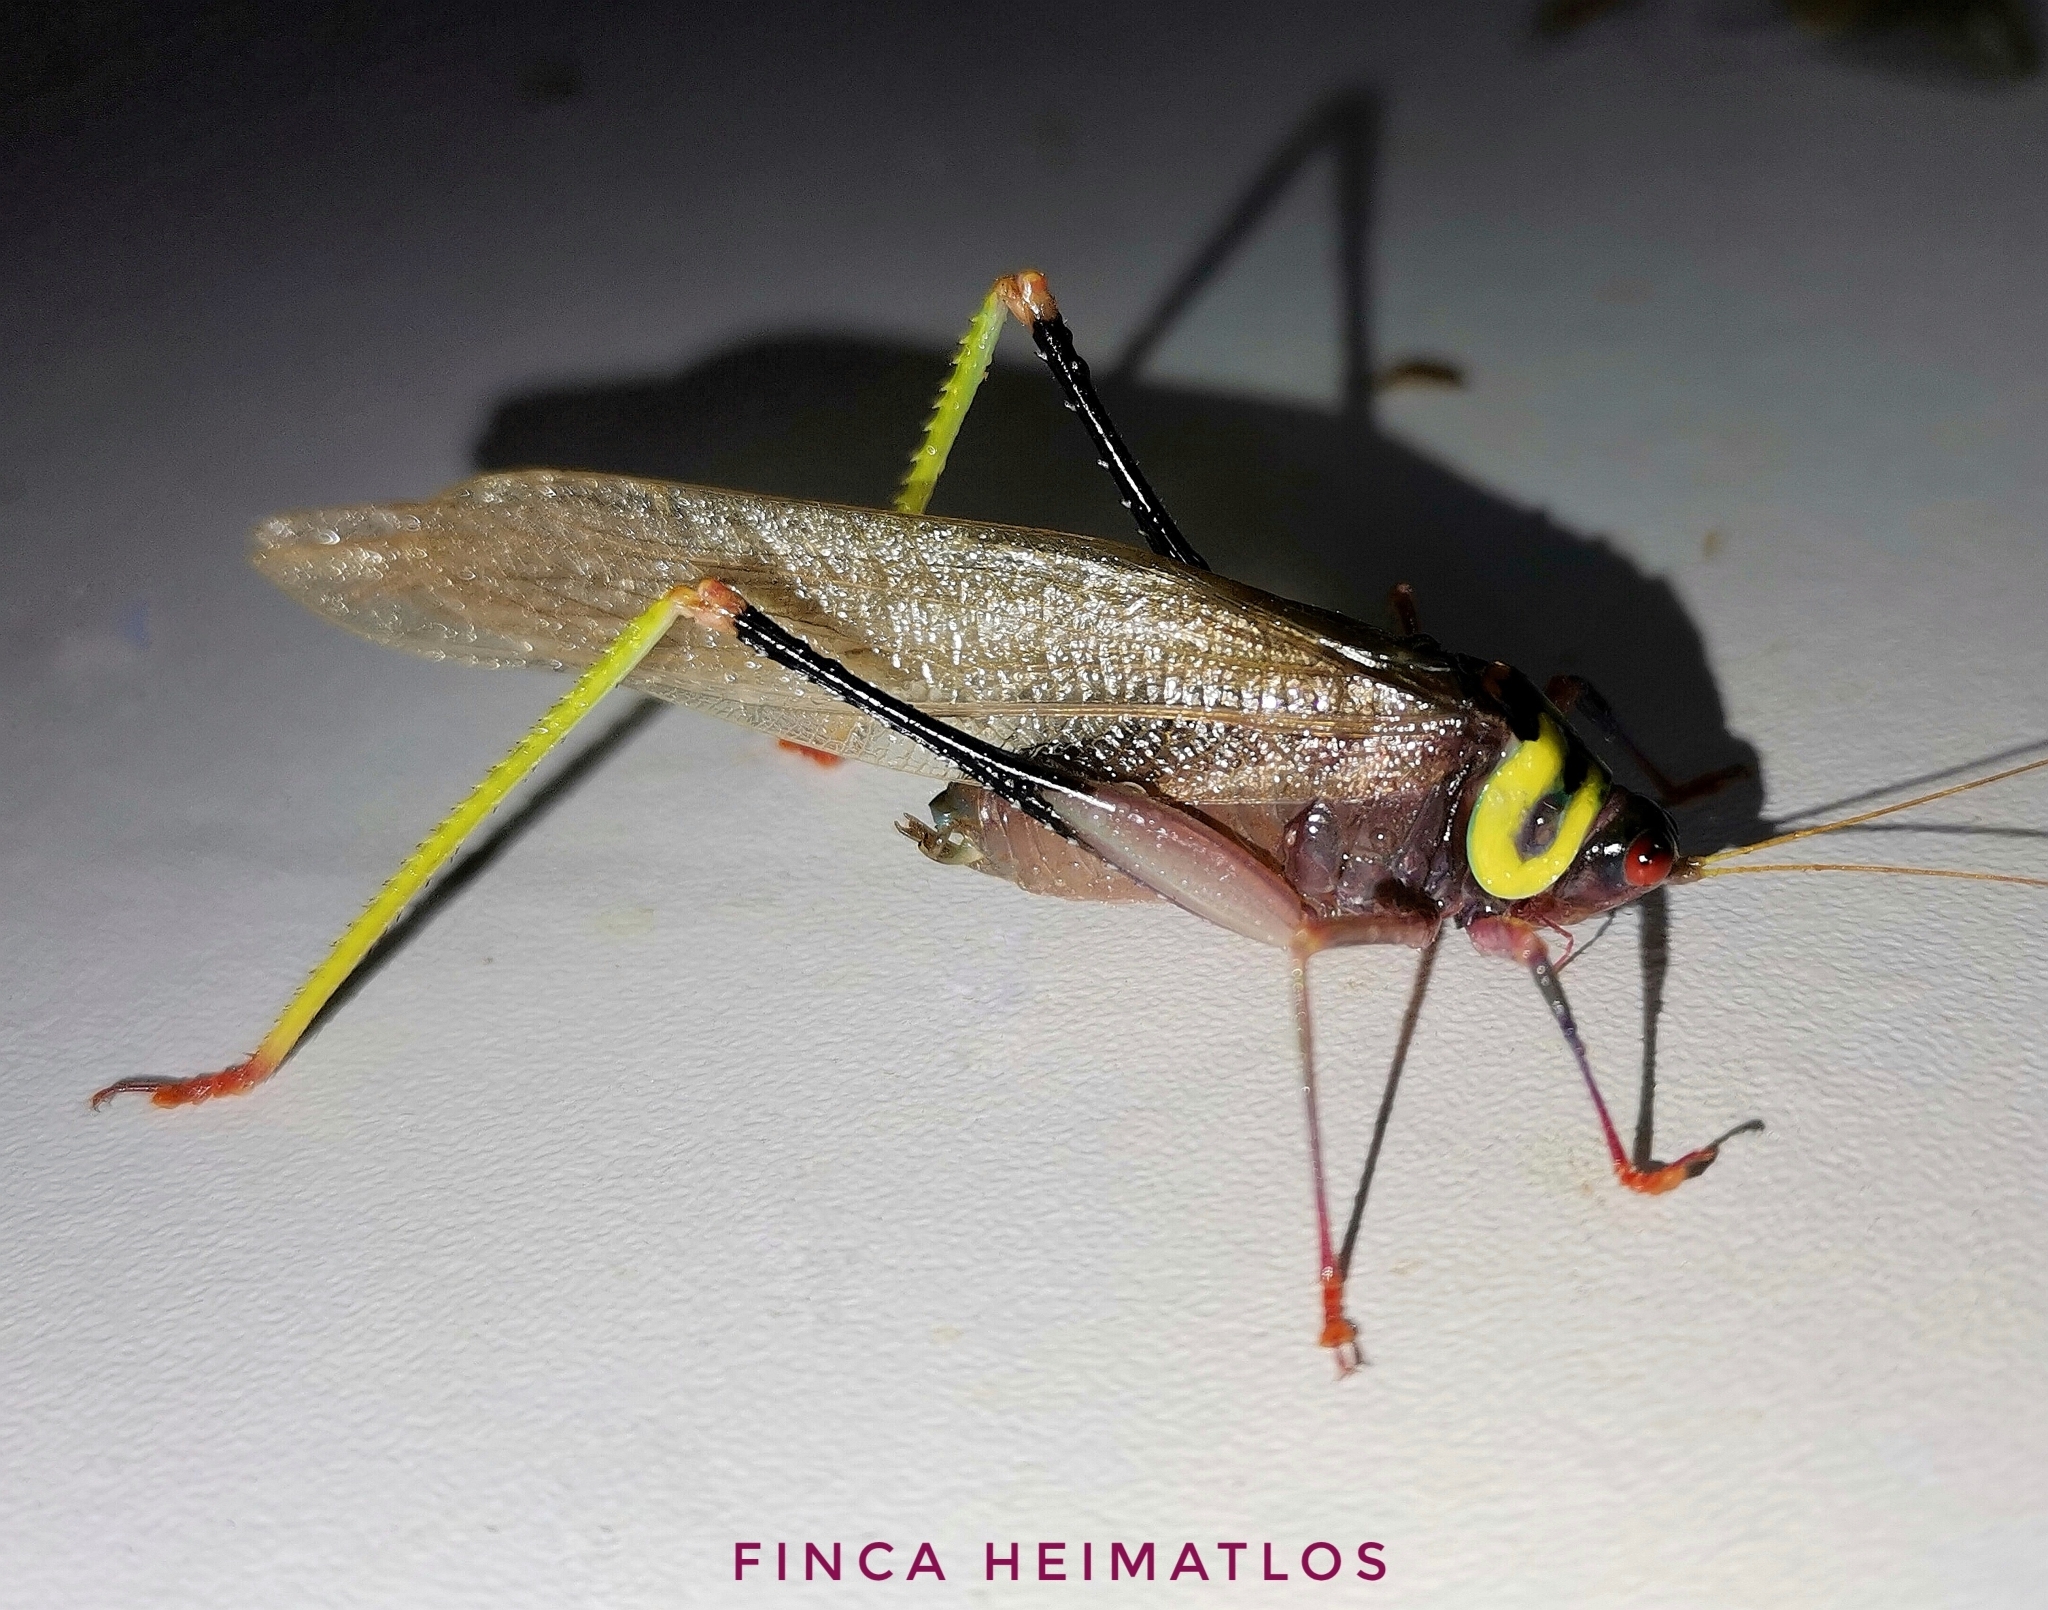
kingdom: Animalia
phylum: Arthropoda
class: Insecta
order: Orthoptera
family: Tettigoniidae
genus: Euceraia
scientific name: Euceraia insignis
